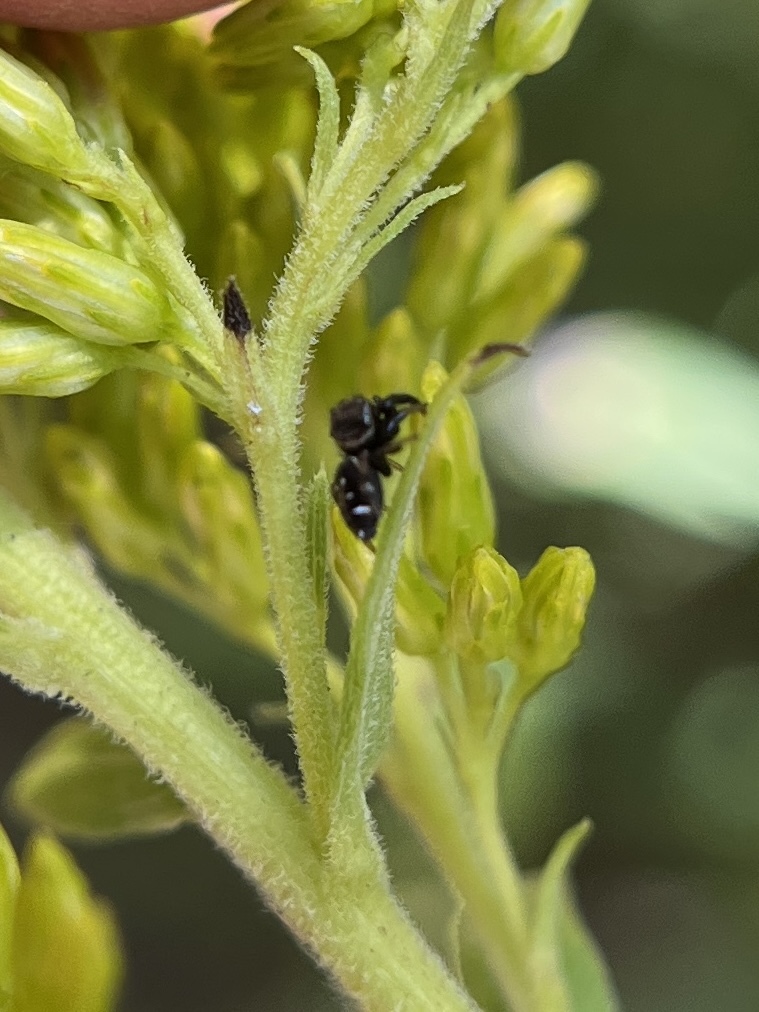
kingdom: Animalia
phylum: Arthropoda
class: Arachnida
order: Araneae
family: Salticidae
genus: Paraphidippus
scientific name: Paraphidippus aurantius
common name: Jumping spiders
